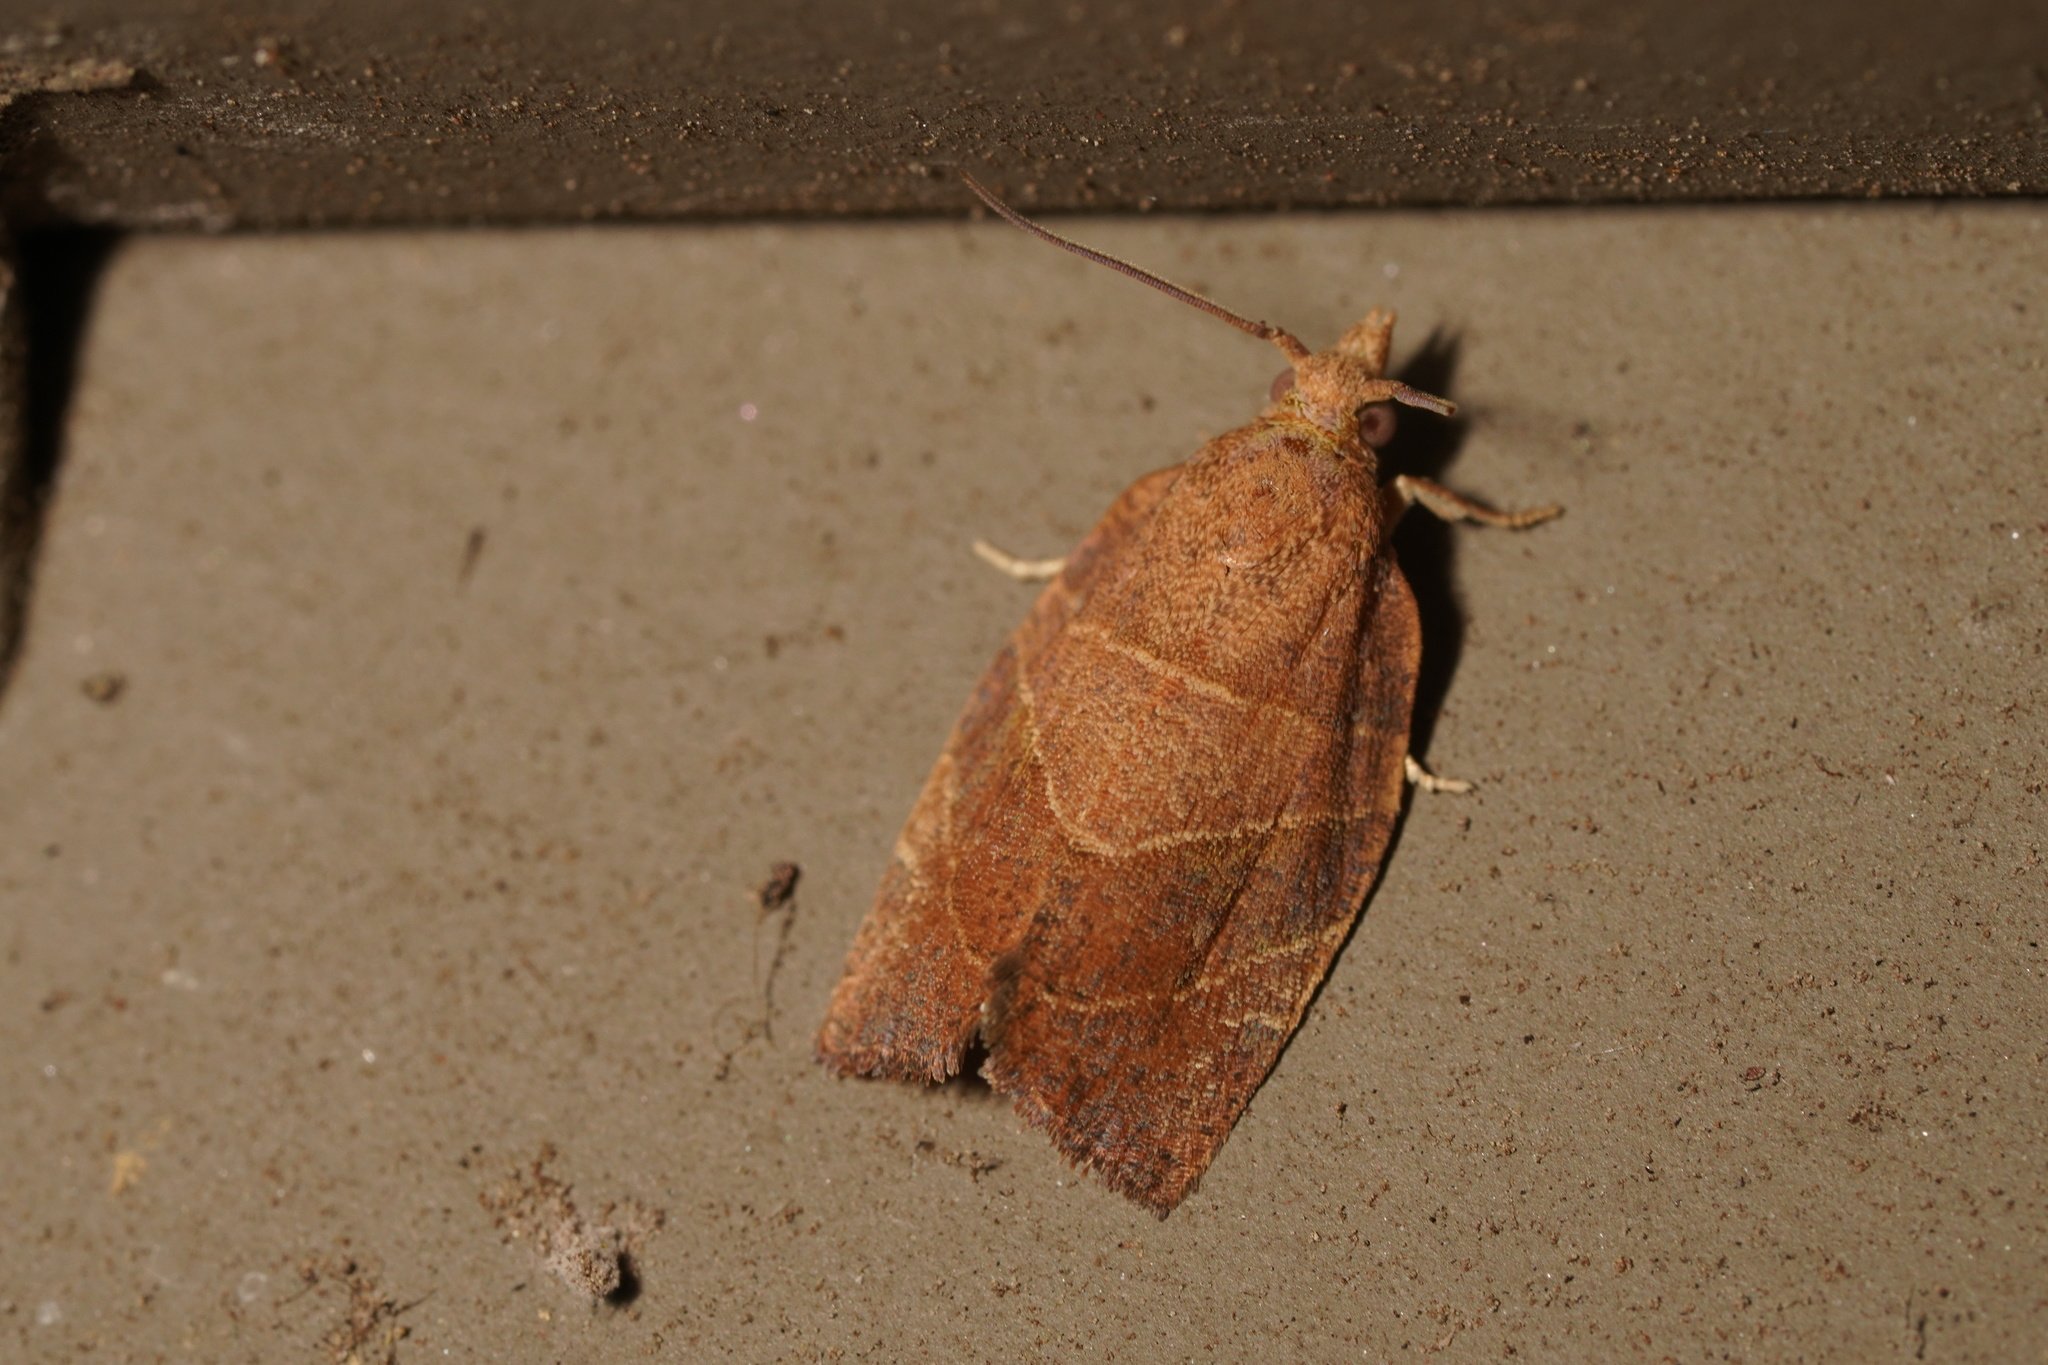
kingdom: Animalia
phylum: Arthropoda
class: Insecta
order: Lepidoptera
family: Tortricidae
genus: Pandemis
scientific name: Pandemis limitata
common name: Three-lined leafroller moth
